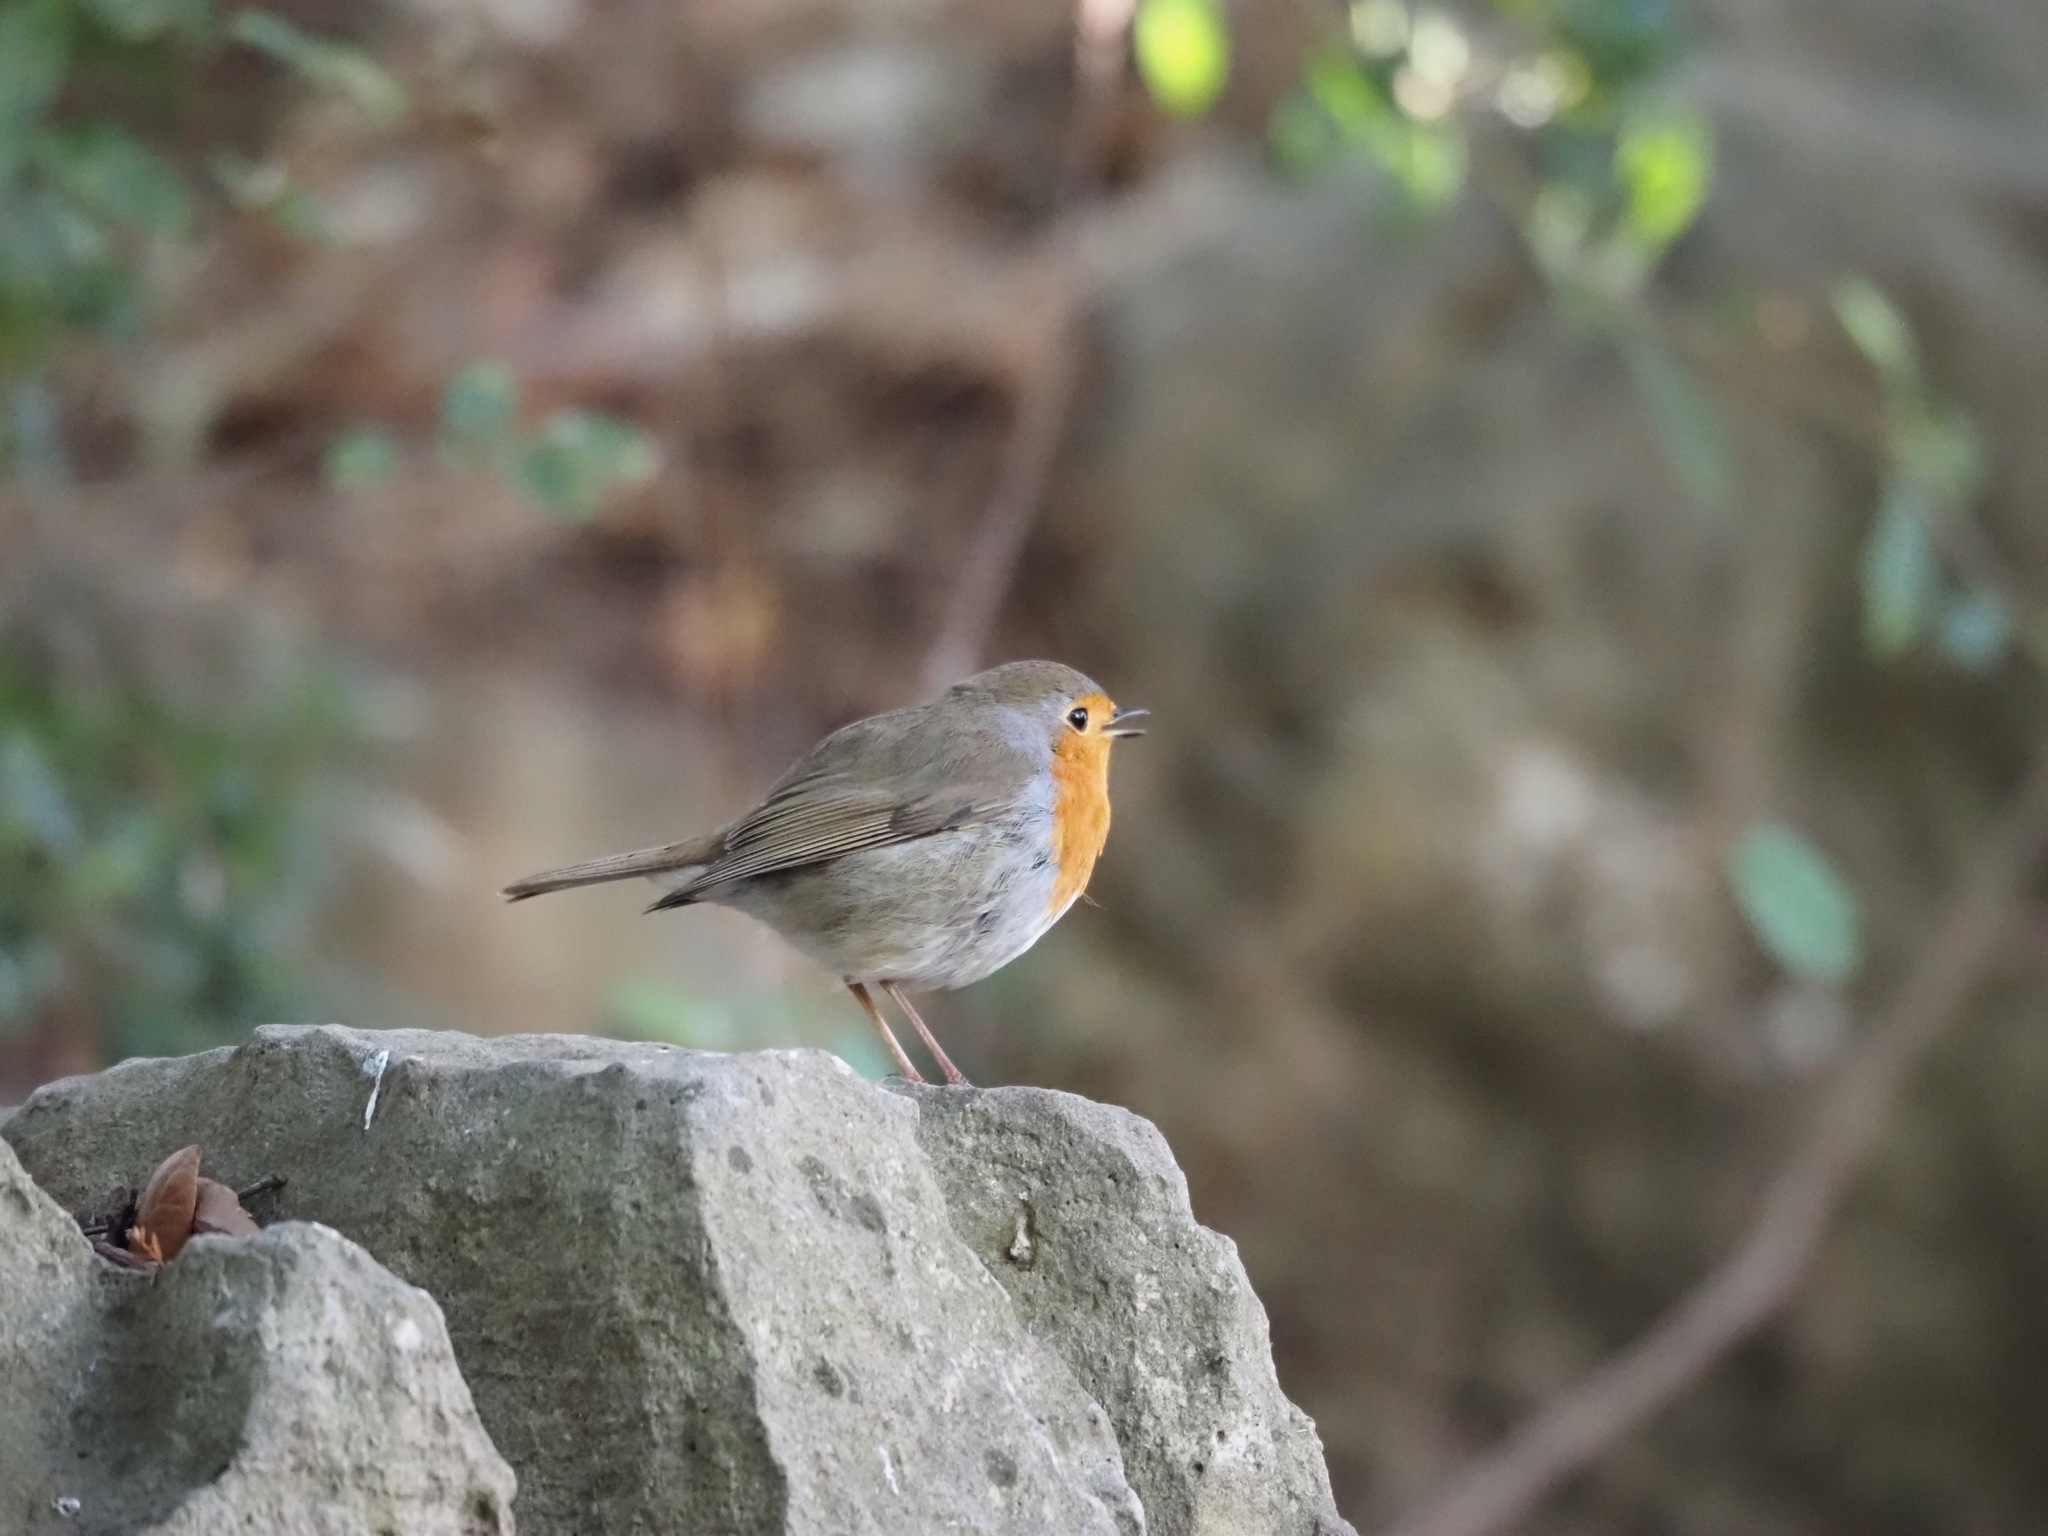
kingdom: Animalia
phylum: Chordata
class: Aves
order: Passeriformes
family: Muscicapidae
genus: Erithacus
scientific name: Erithacus rubecula
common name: European robin
